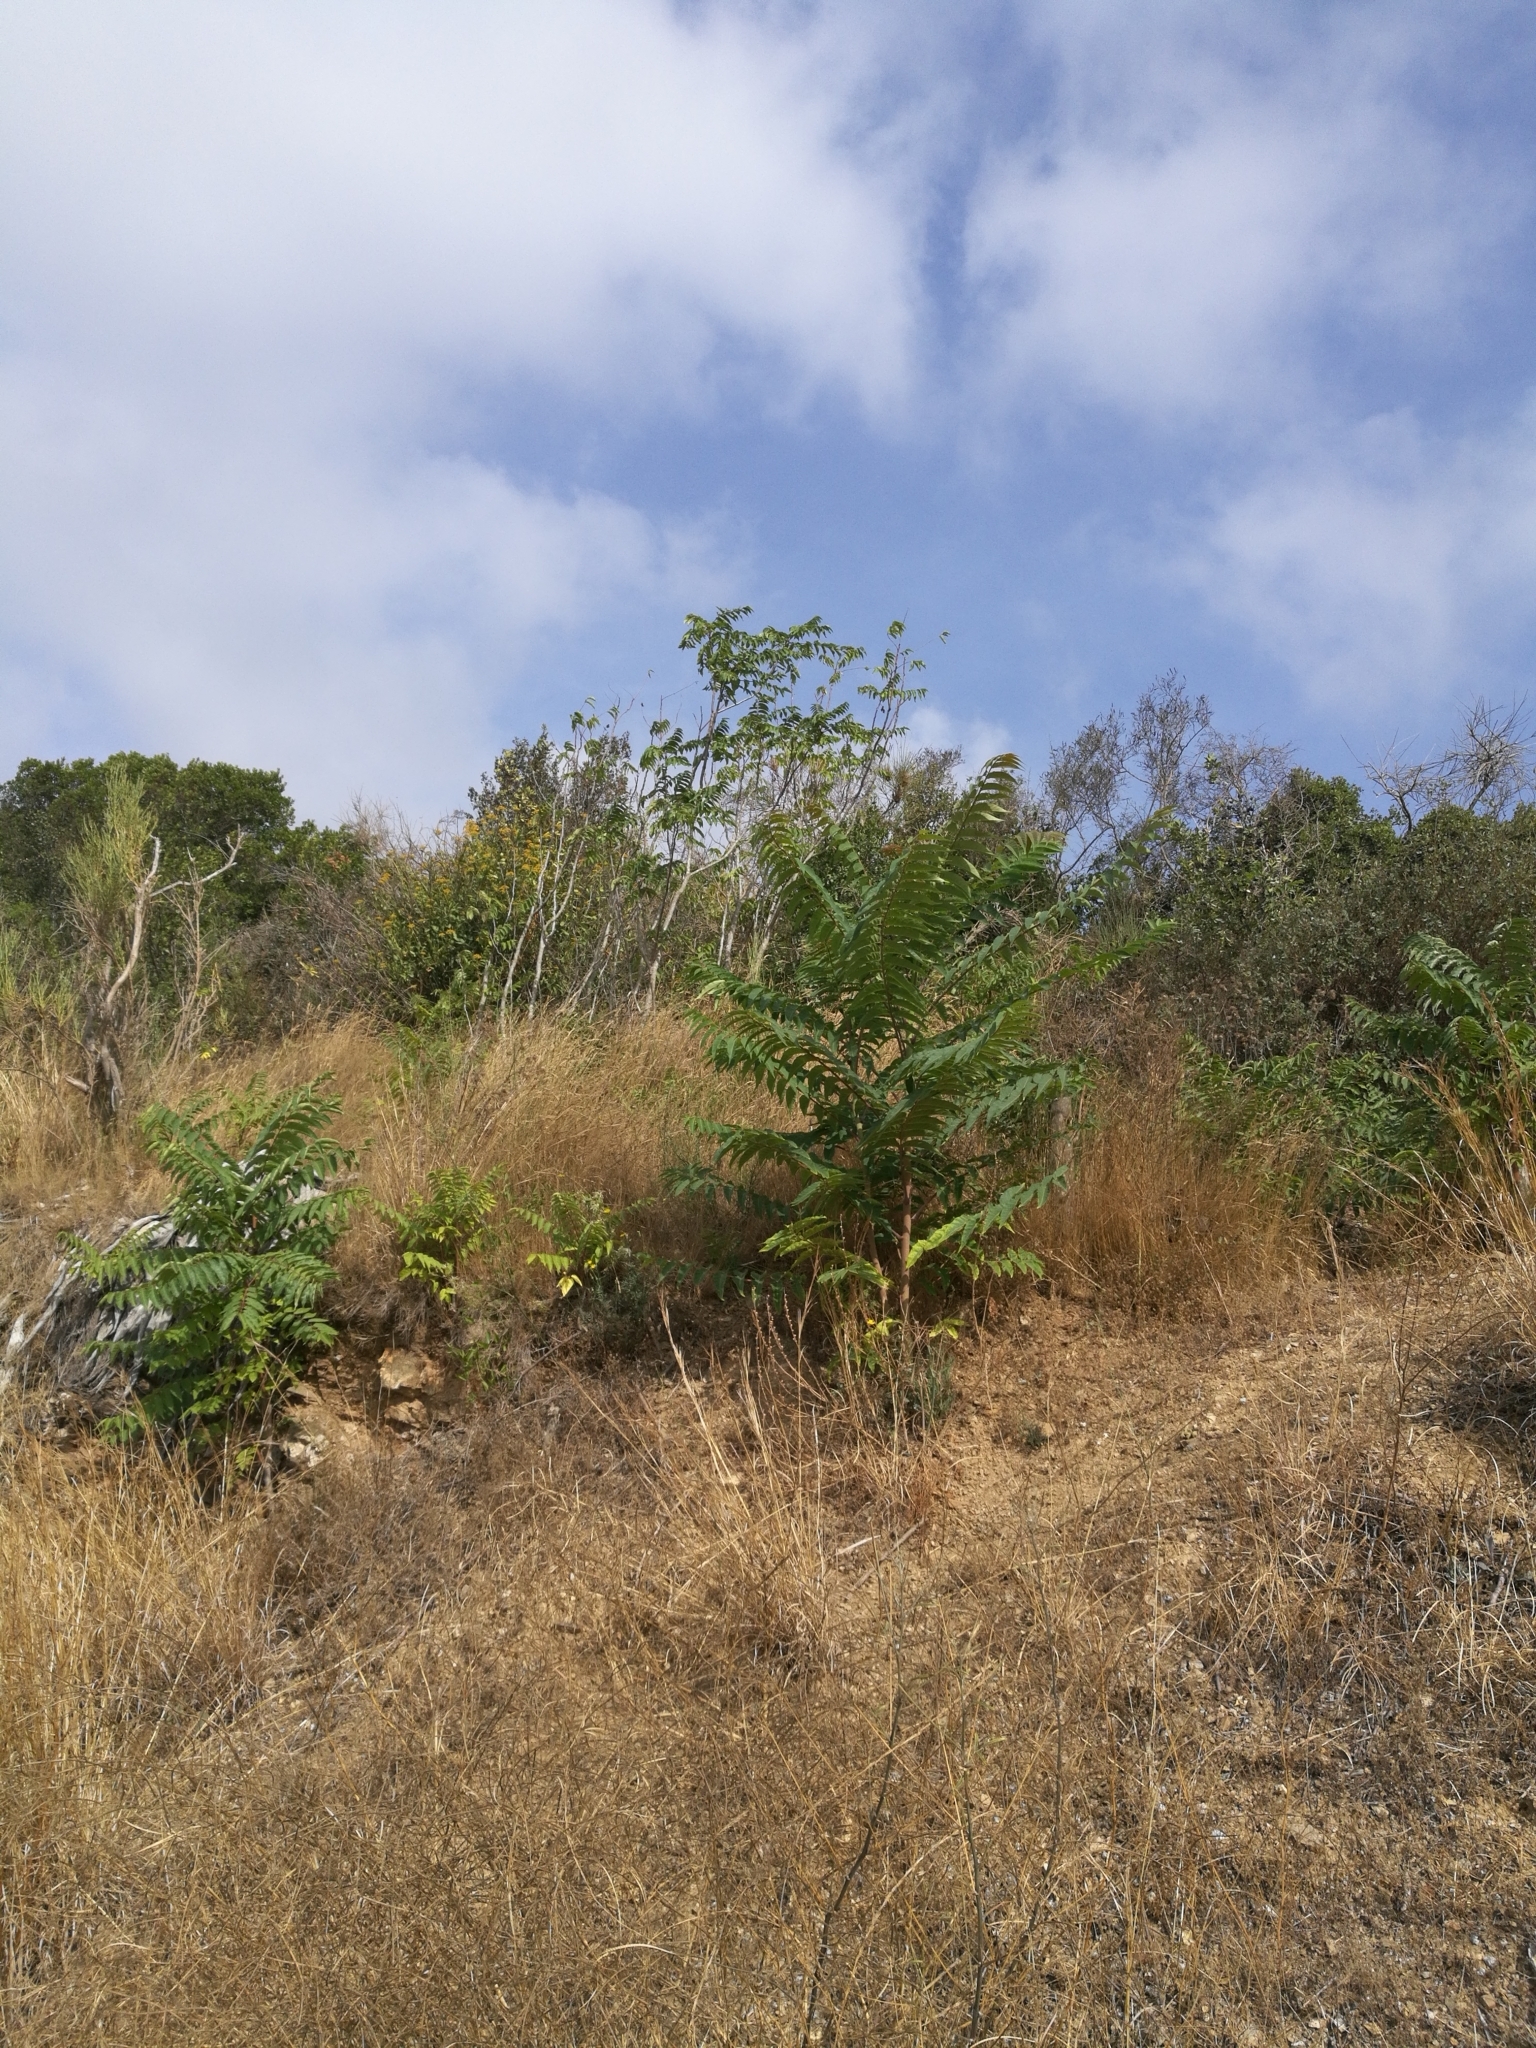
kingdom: Plantae
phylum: Tracheophyta
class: Magnoliopsida
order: Sapindales
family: Simaroubaceae
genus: Ailanthus
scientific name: Ailanthus altissima
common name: Tree-of-heaven
